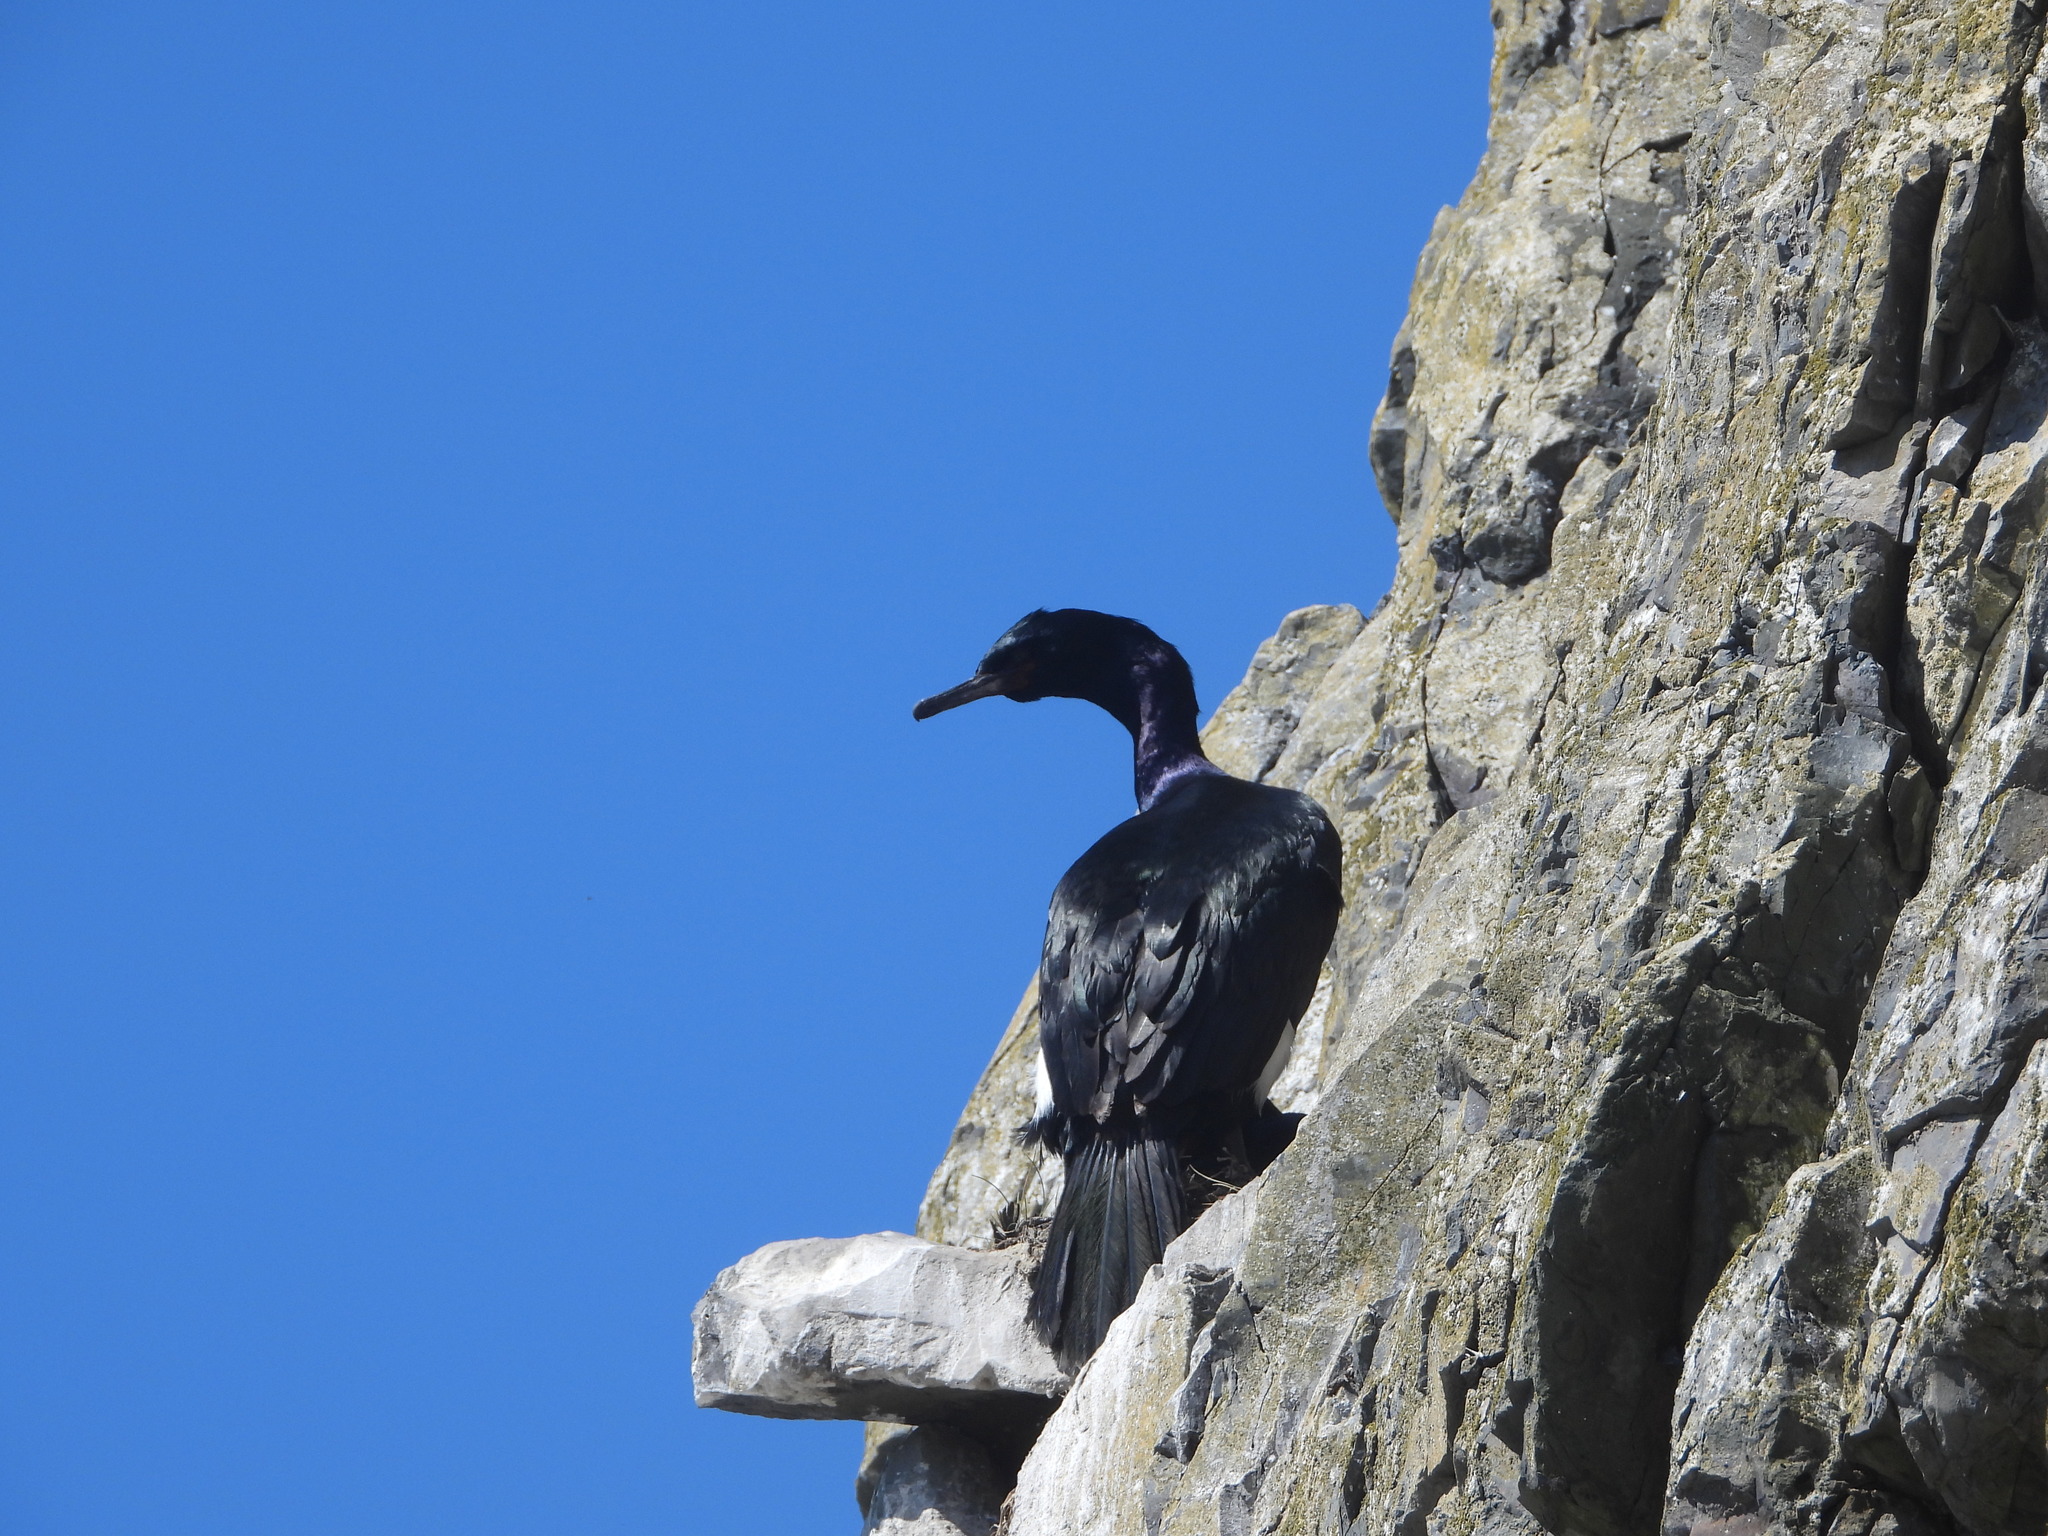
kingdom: Animalia
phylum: Chordata
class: Aves
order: Suliformes
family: Phalacrocoracidae
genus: Phalacrocorax
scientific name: Phalacrocorax pelagicus
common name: Pelagic cormorant
